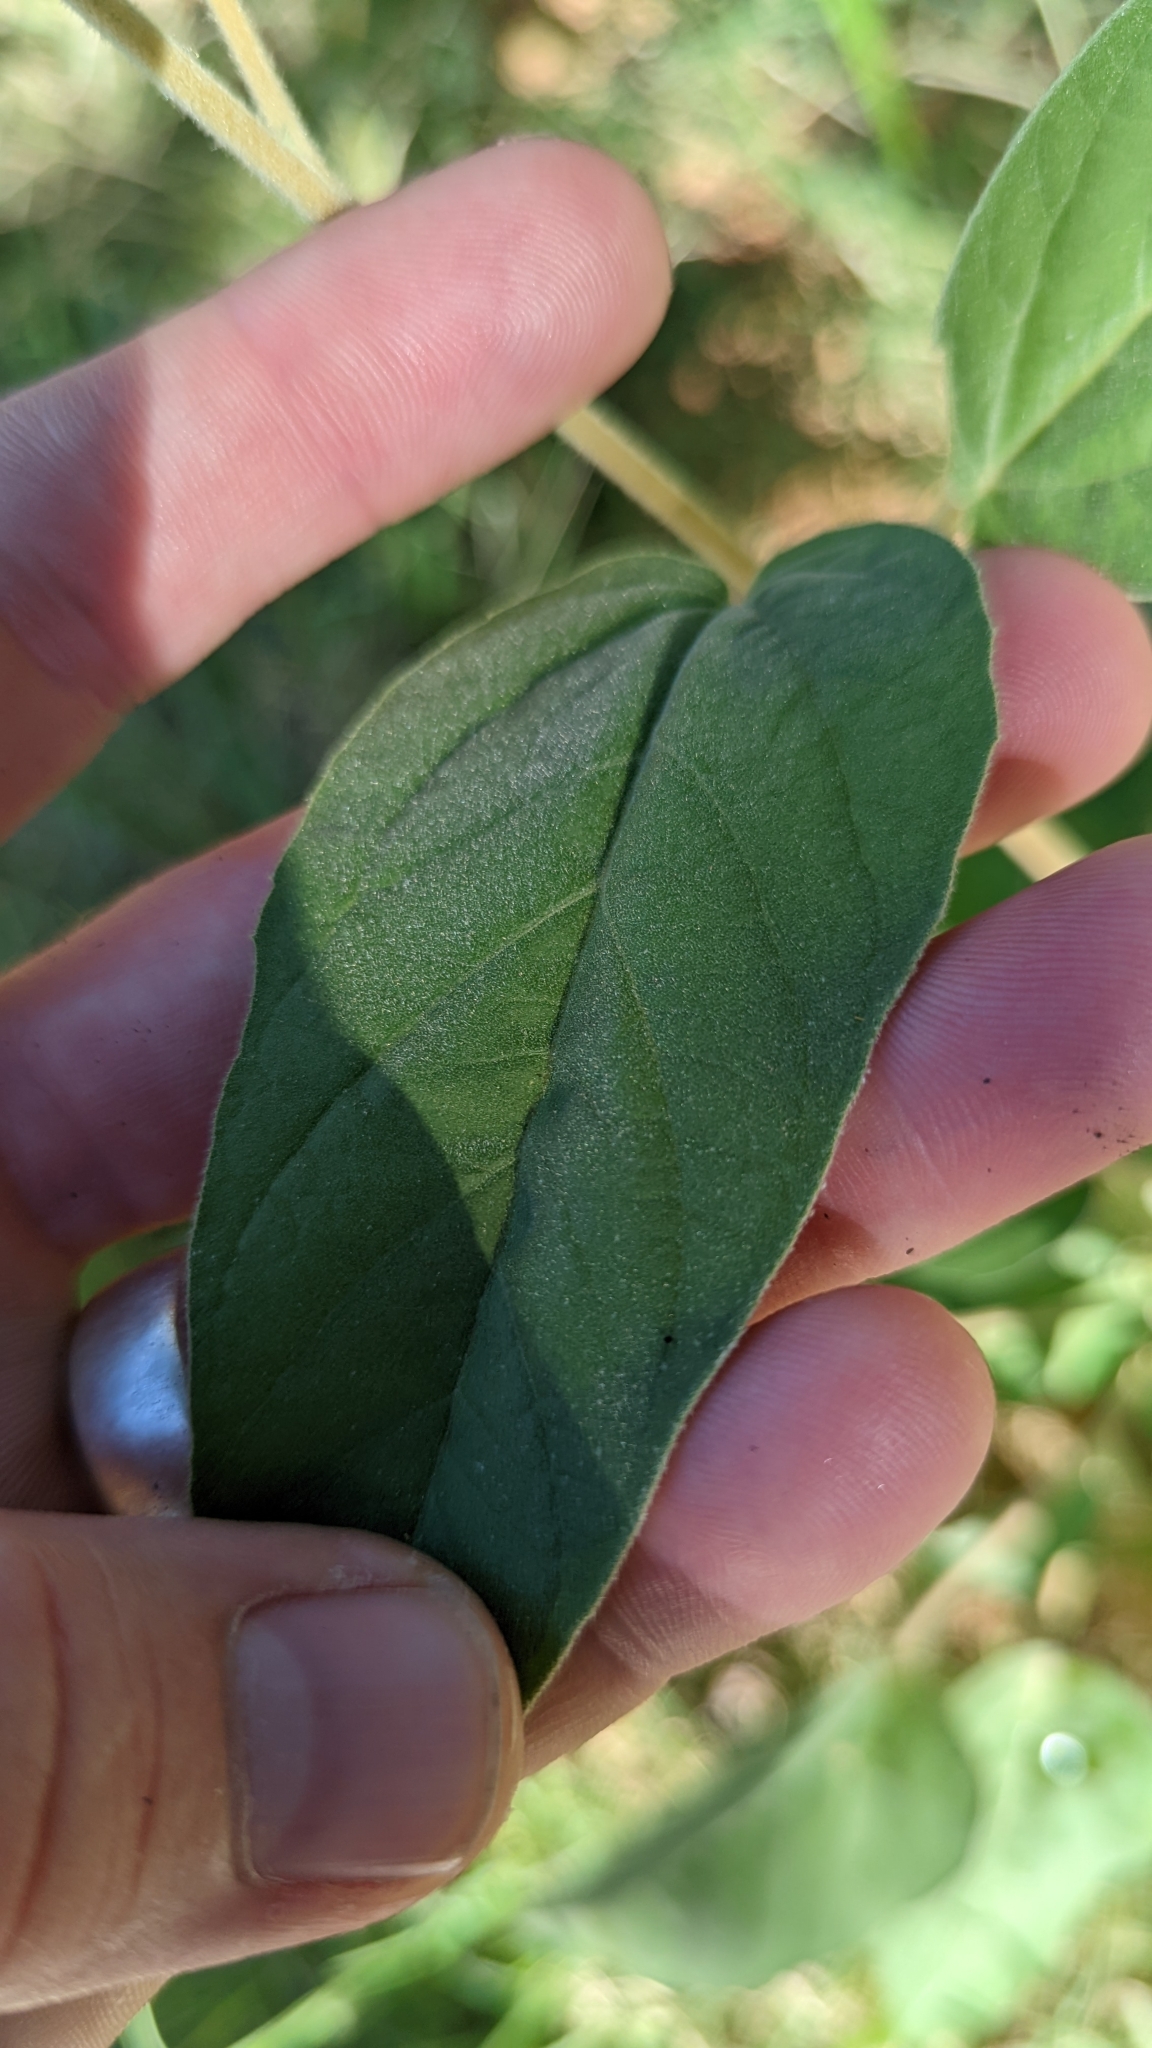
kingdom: Plantae
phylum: Tracheophyta
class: Magnoliopsida
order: Malpighiales
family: Euphorbiaceae
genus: Croton
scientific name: Croton lindheimeri
